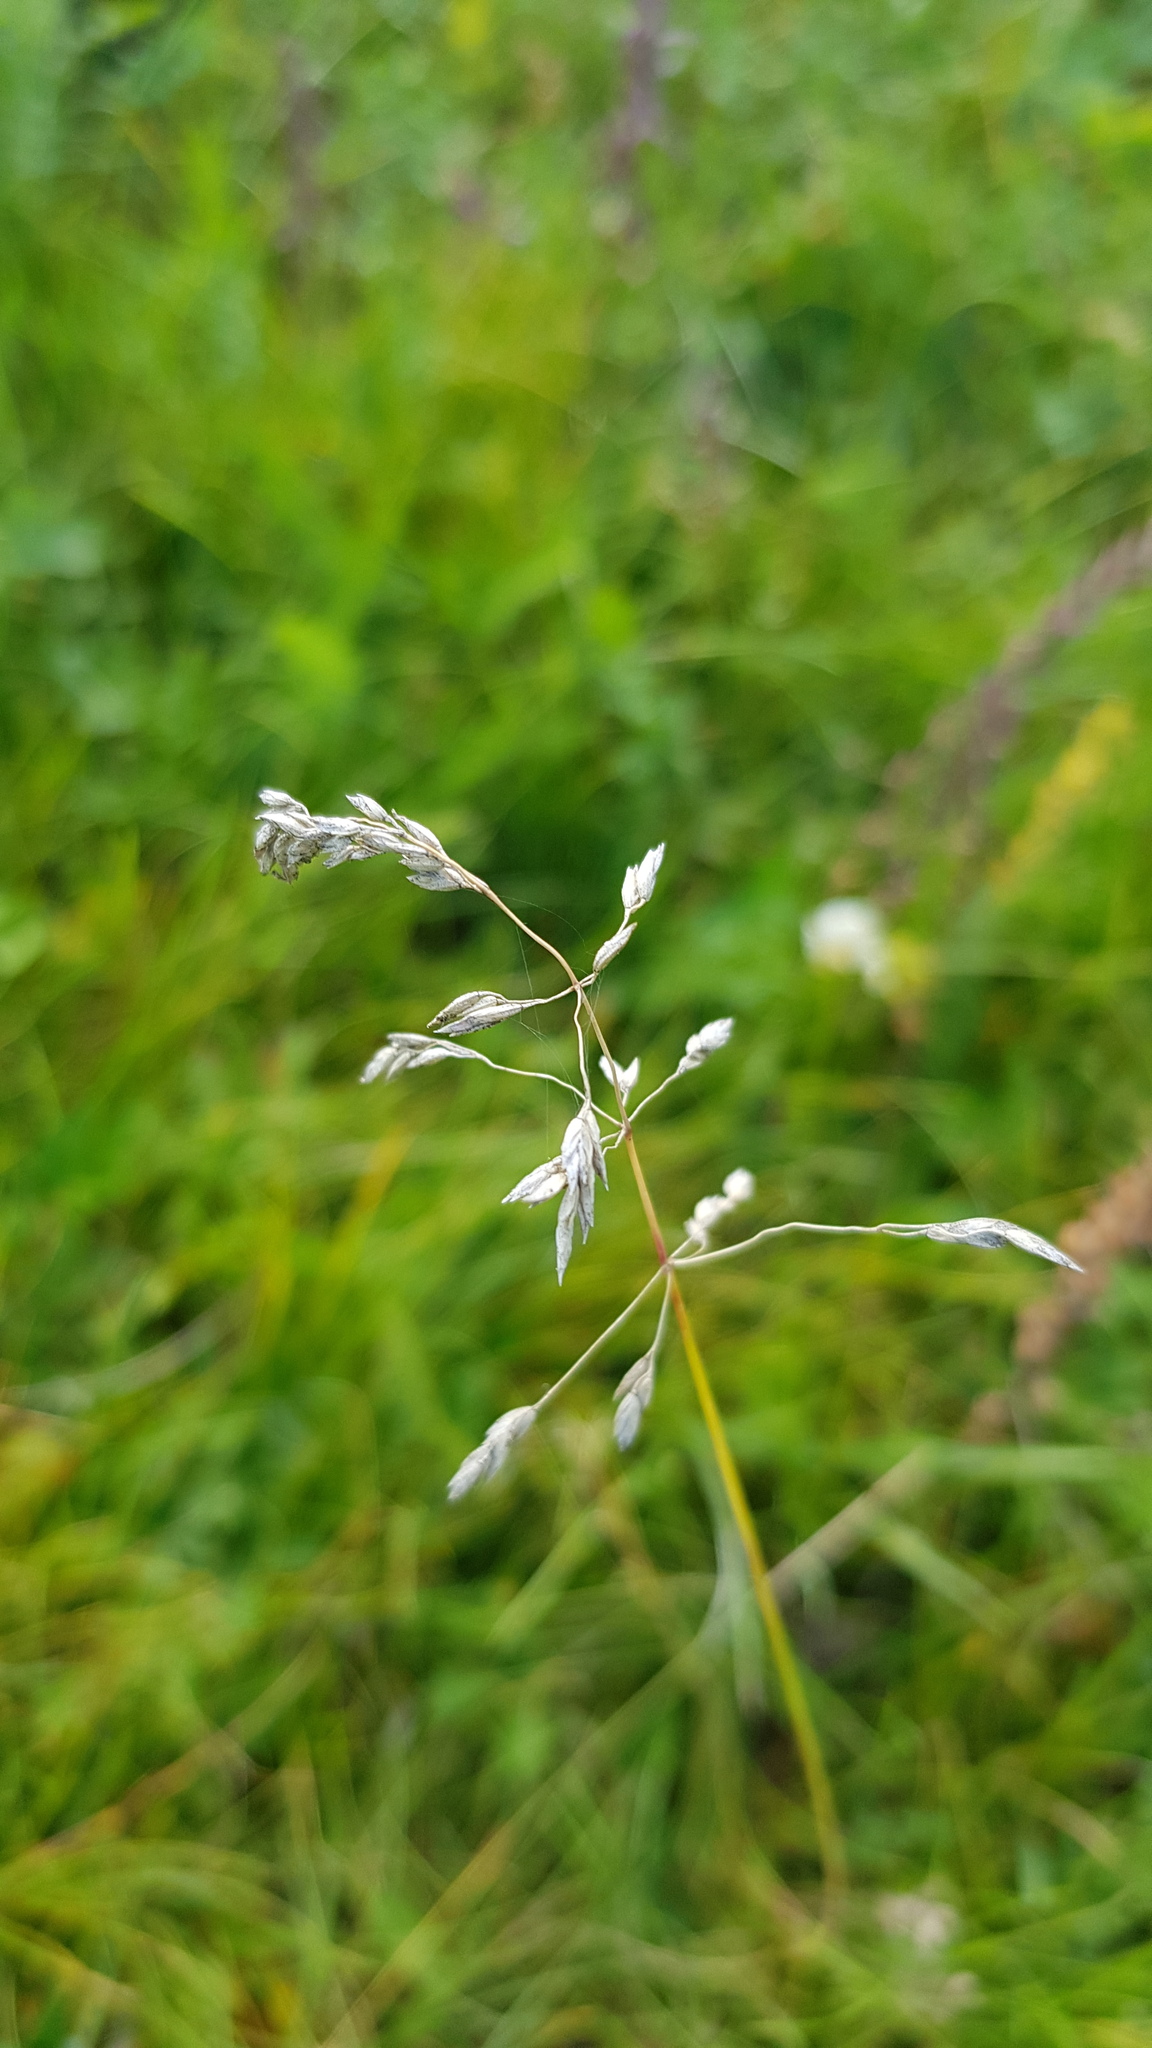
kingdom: Plantae
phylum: Tracheophyta
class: Liliopsida
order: Poales
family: Poaceae
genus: Poa
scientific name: Poa pratensis
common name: Kentucky bluegrass
